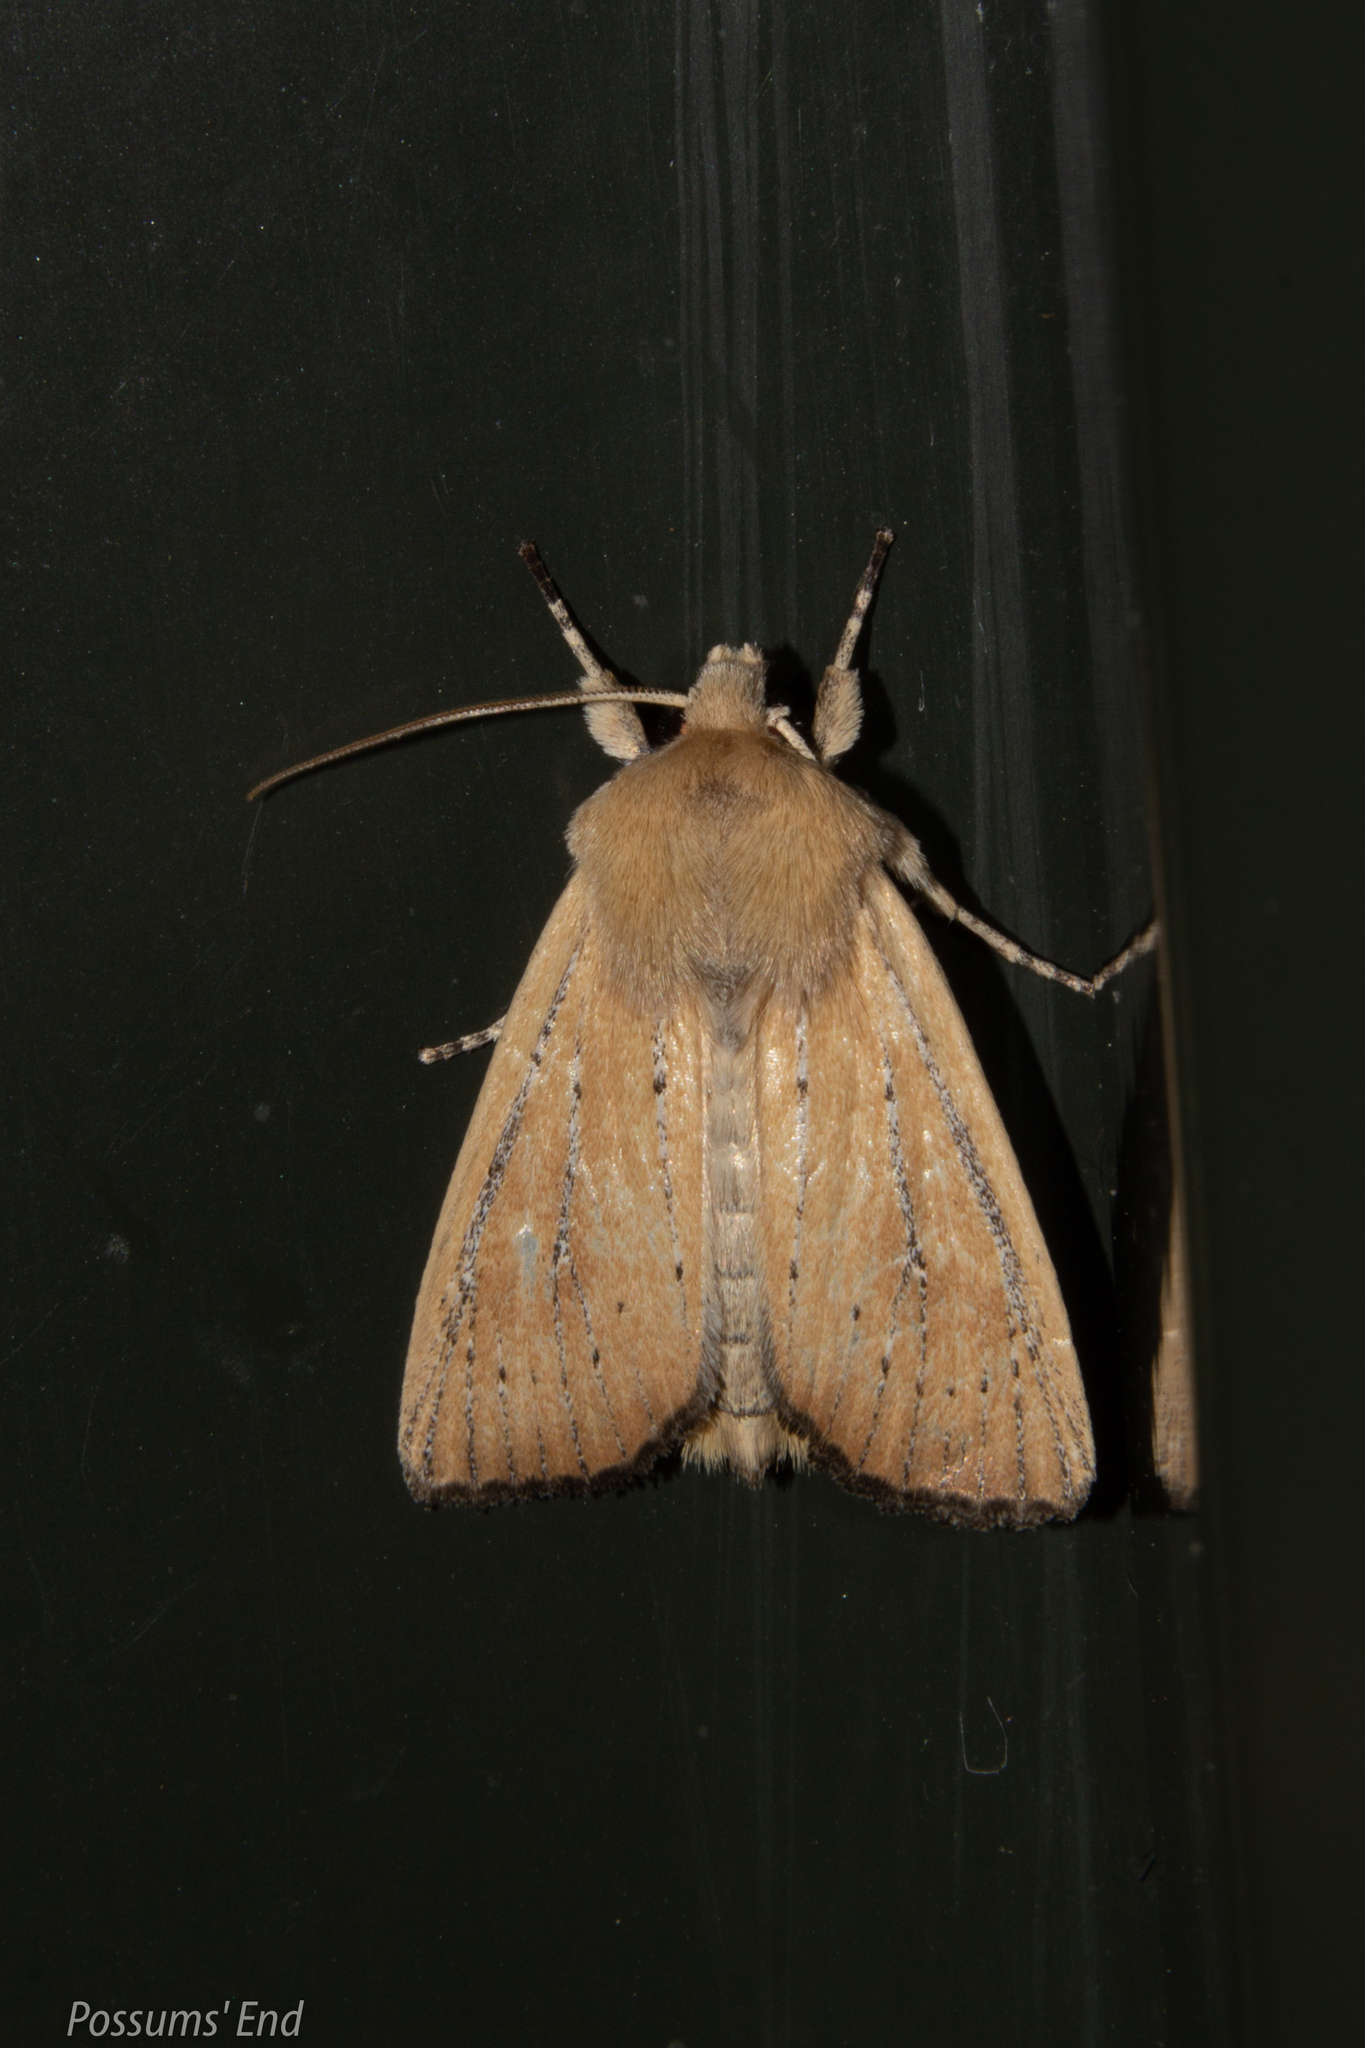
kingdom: Animalia
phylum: Arthropoda
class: Insecta
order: Lepidoptera
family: Noctuidae
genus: Ichneutica
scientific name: Ichneutica blenheimensis
